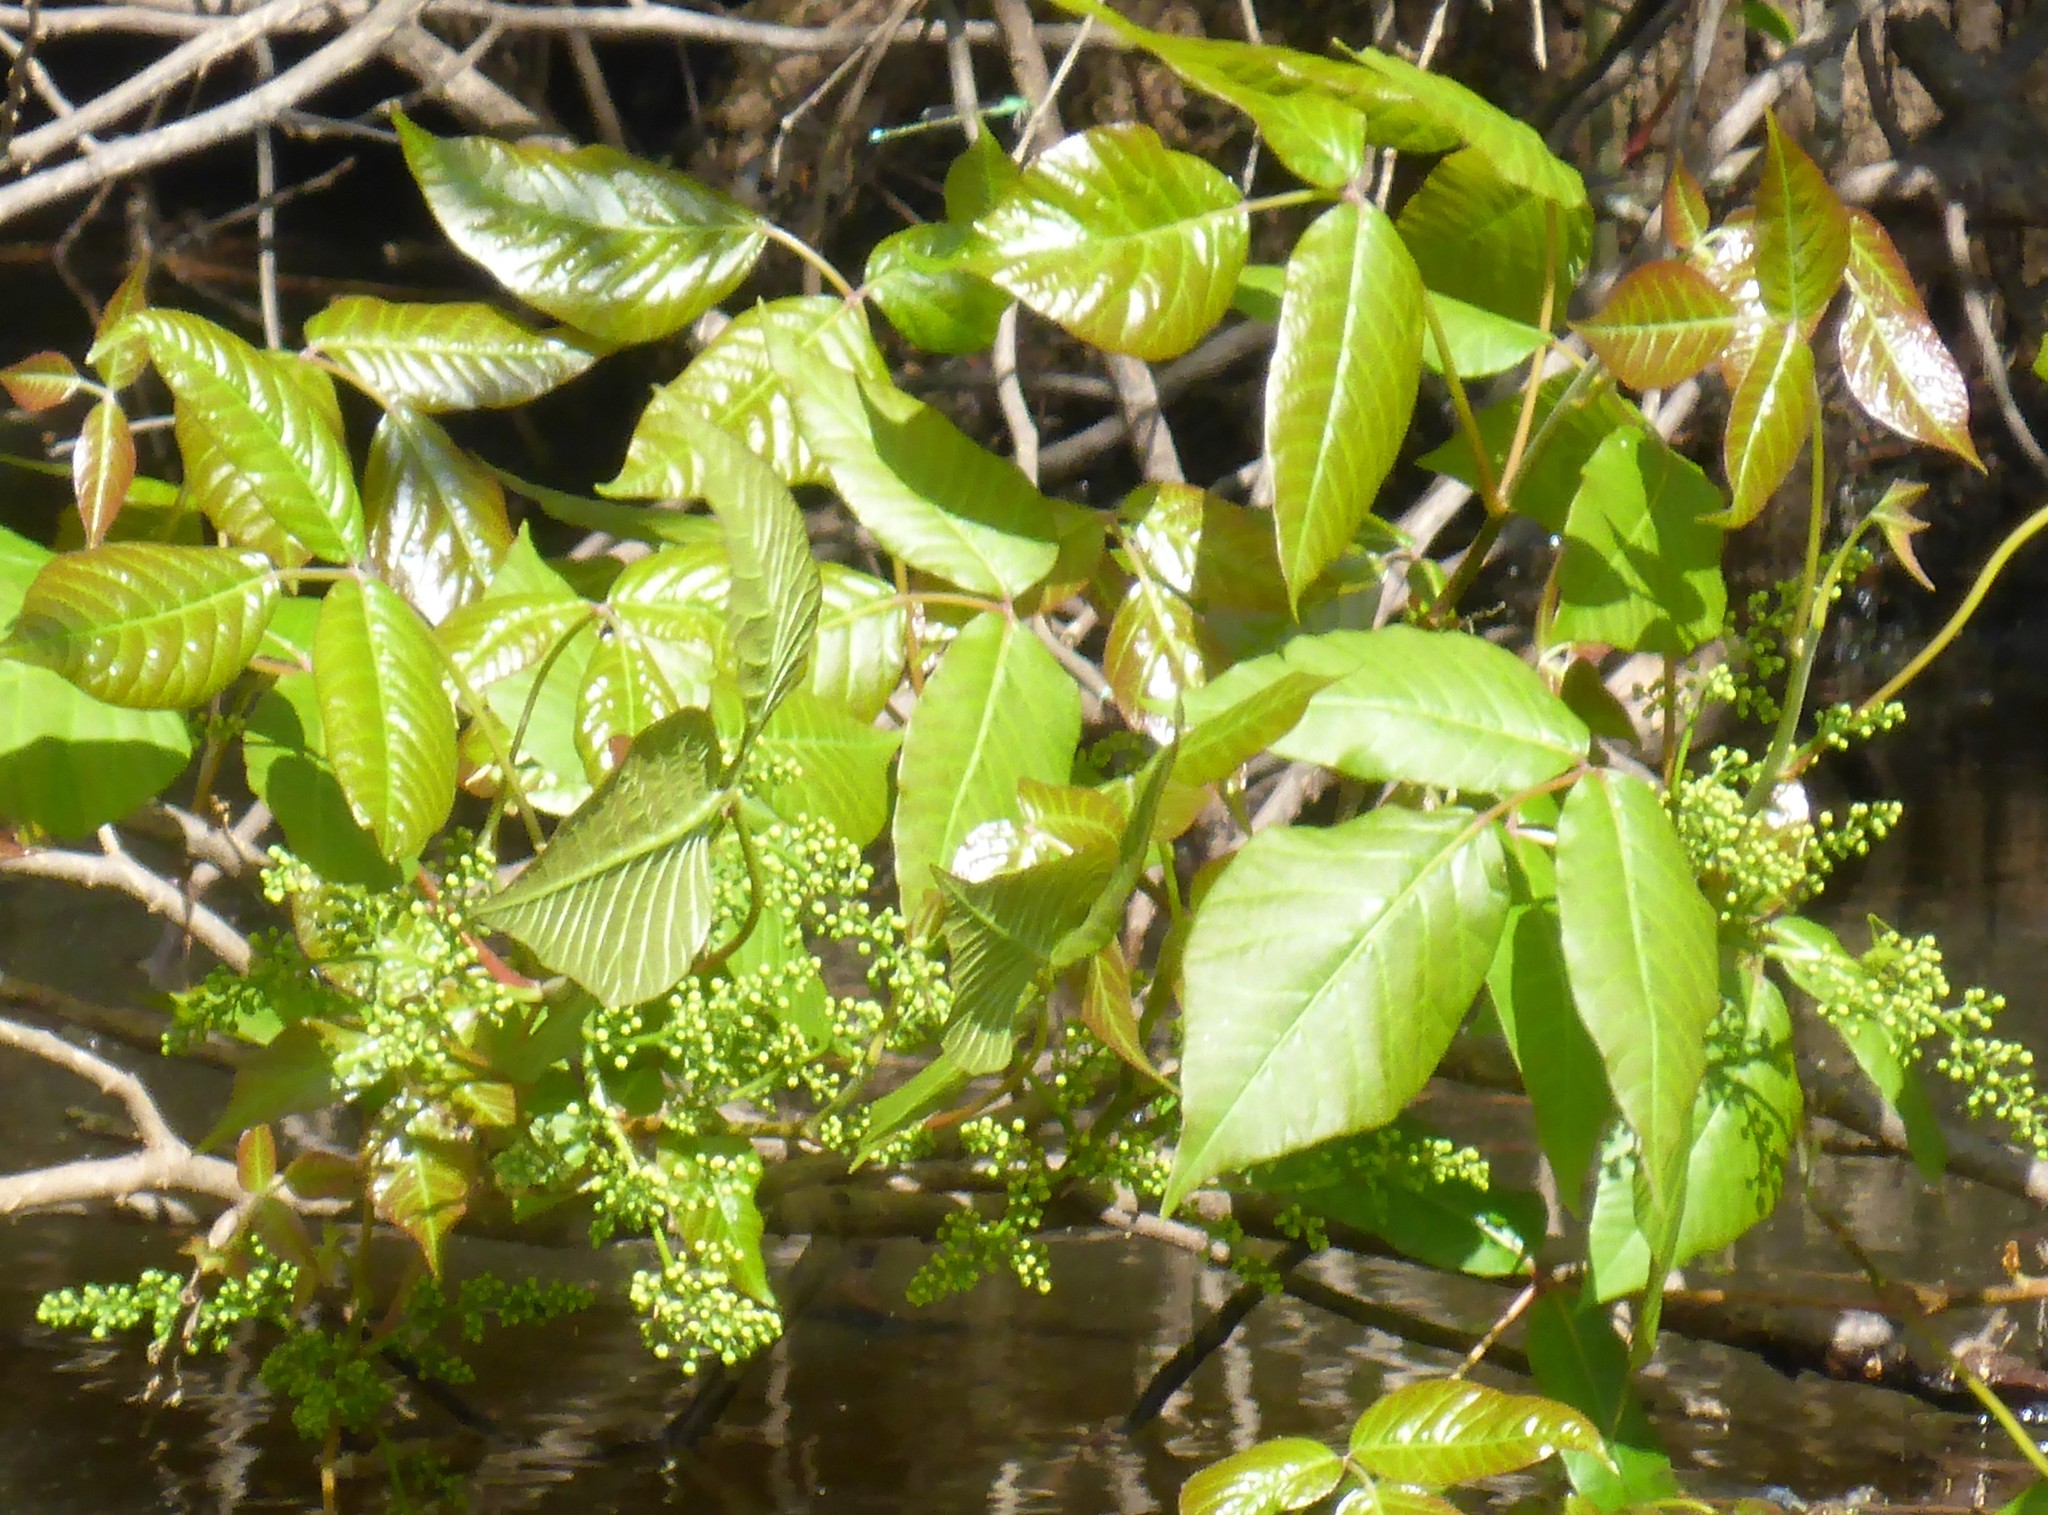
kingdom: Plantae
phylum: Tracheophyta
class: Magnoliopsida
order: Sapindales
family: Anacardiaceae
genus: Toxicodendron
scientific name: Toxicodendron radicans
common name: Poison ivy
